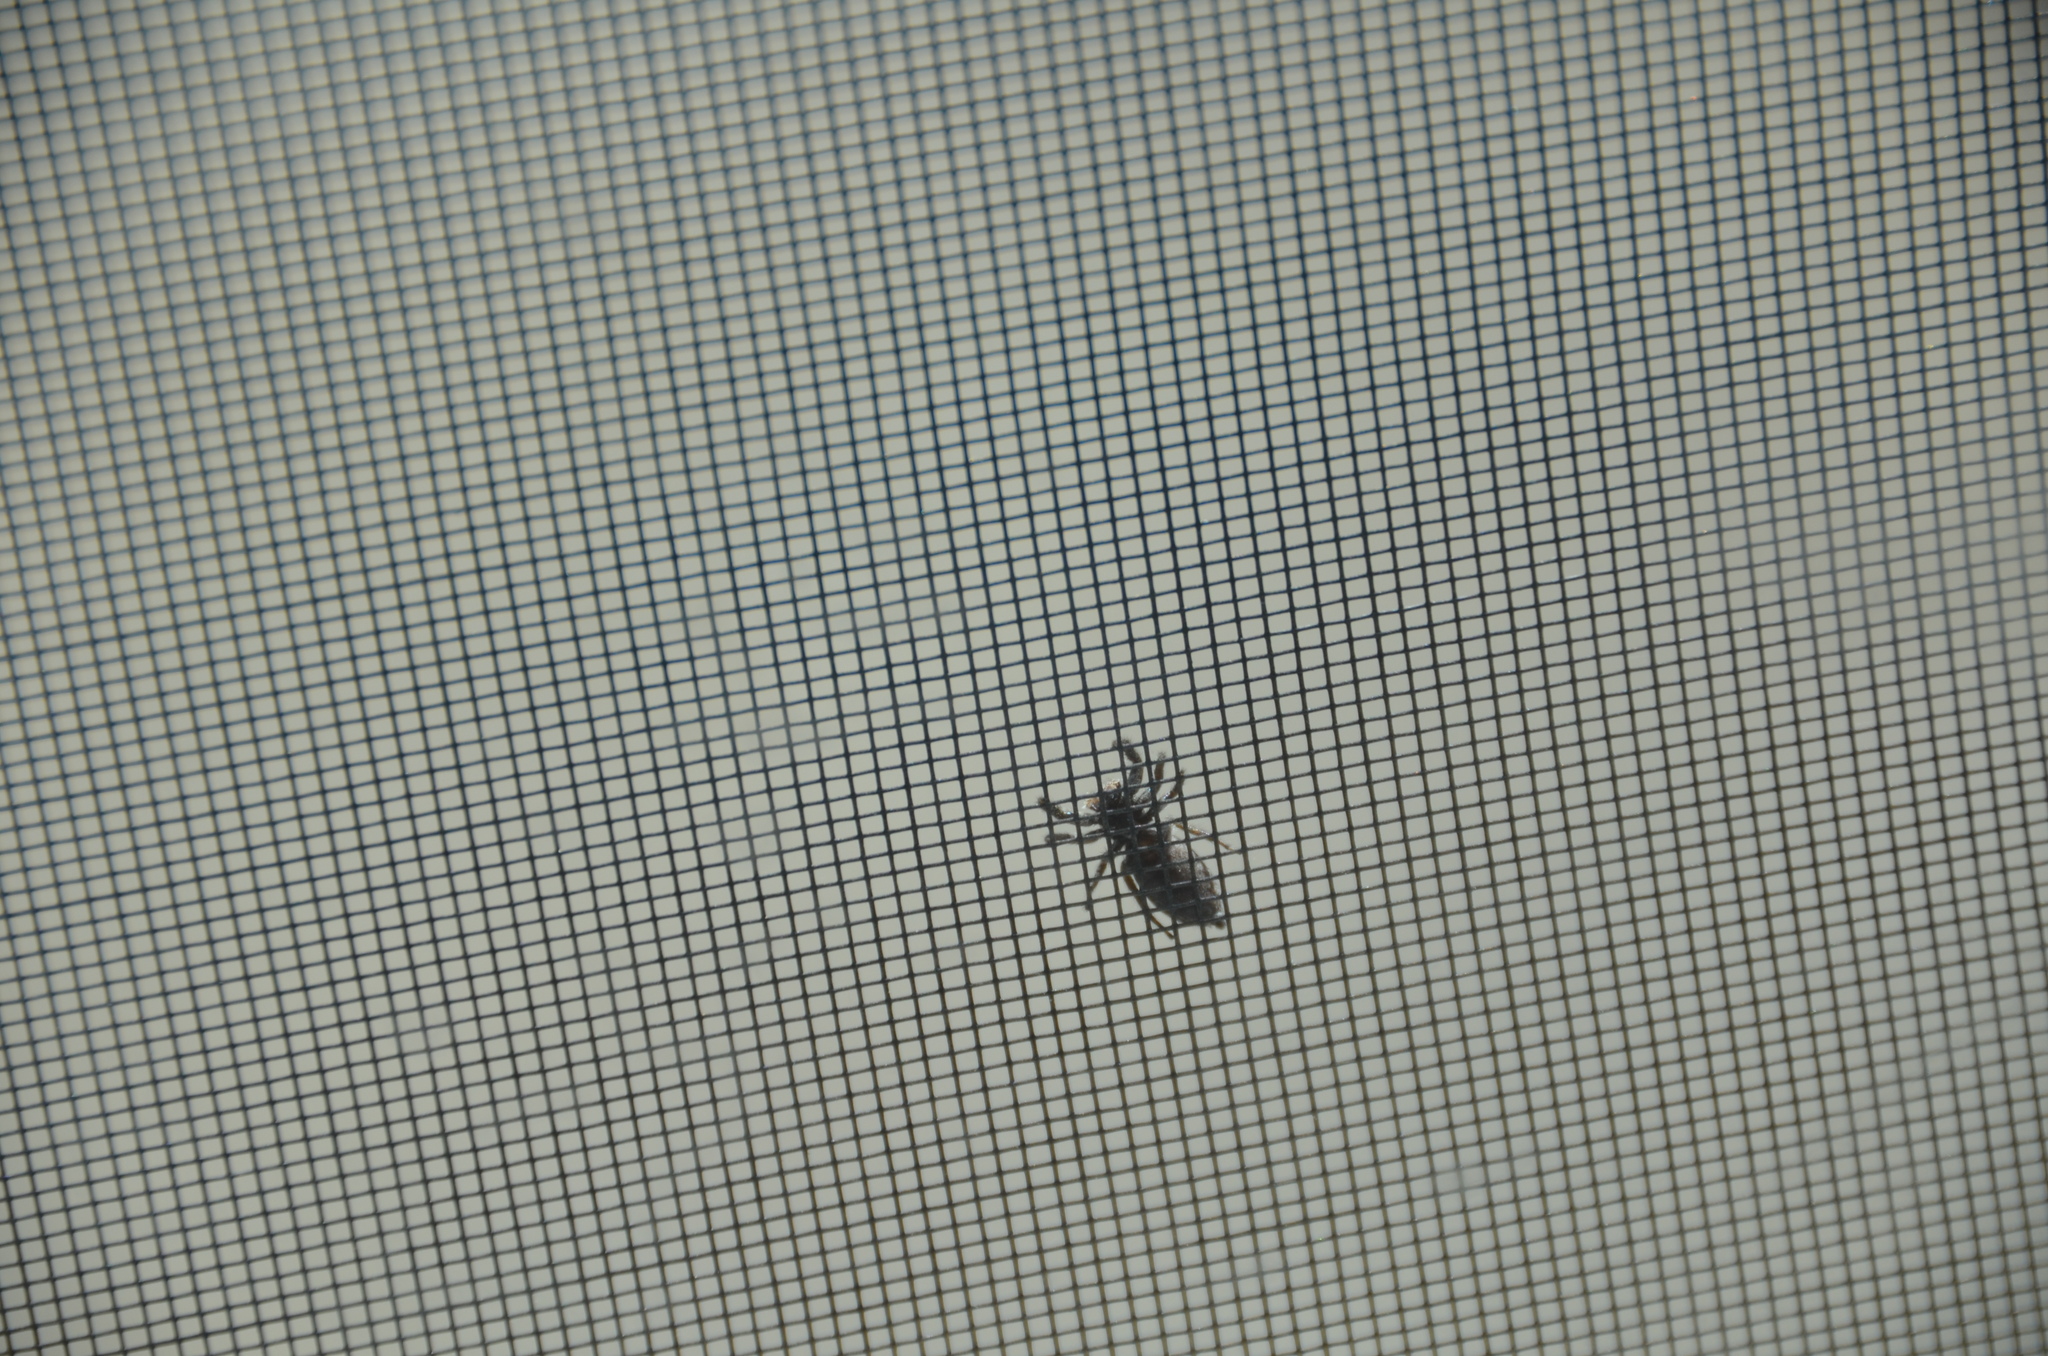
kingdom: Animalia
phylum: Arthropoda
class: Arachnida
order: Araneae
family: Salticidae
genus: Platycryptus
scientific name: Platycryptus californicus
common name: Jumping spiders
